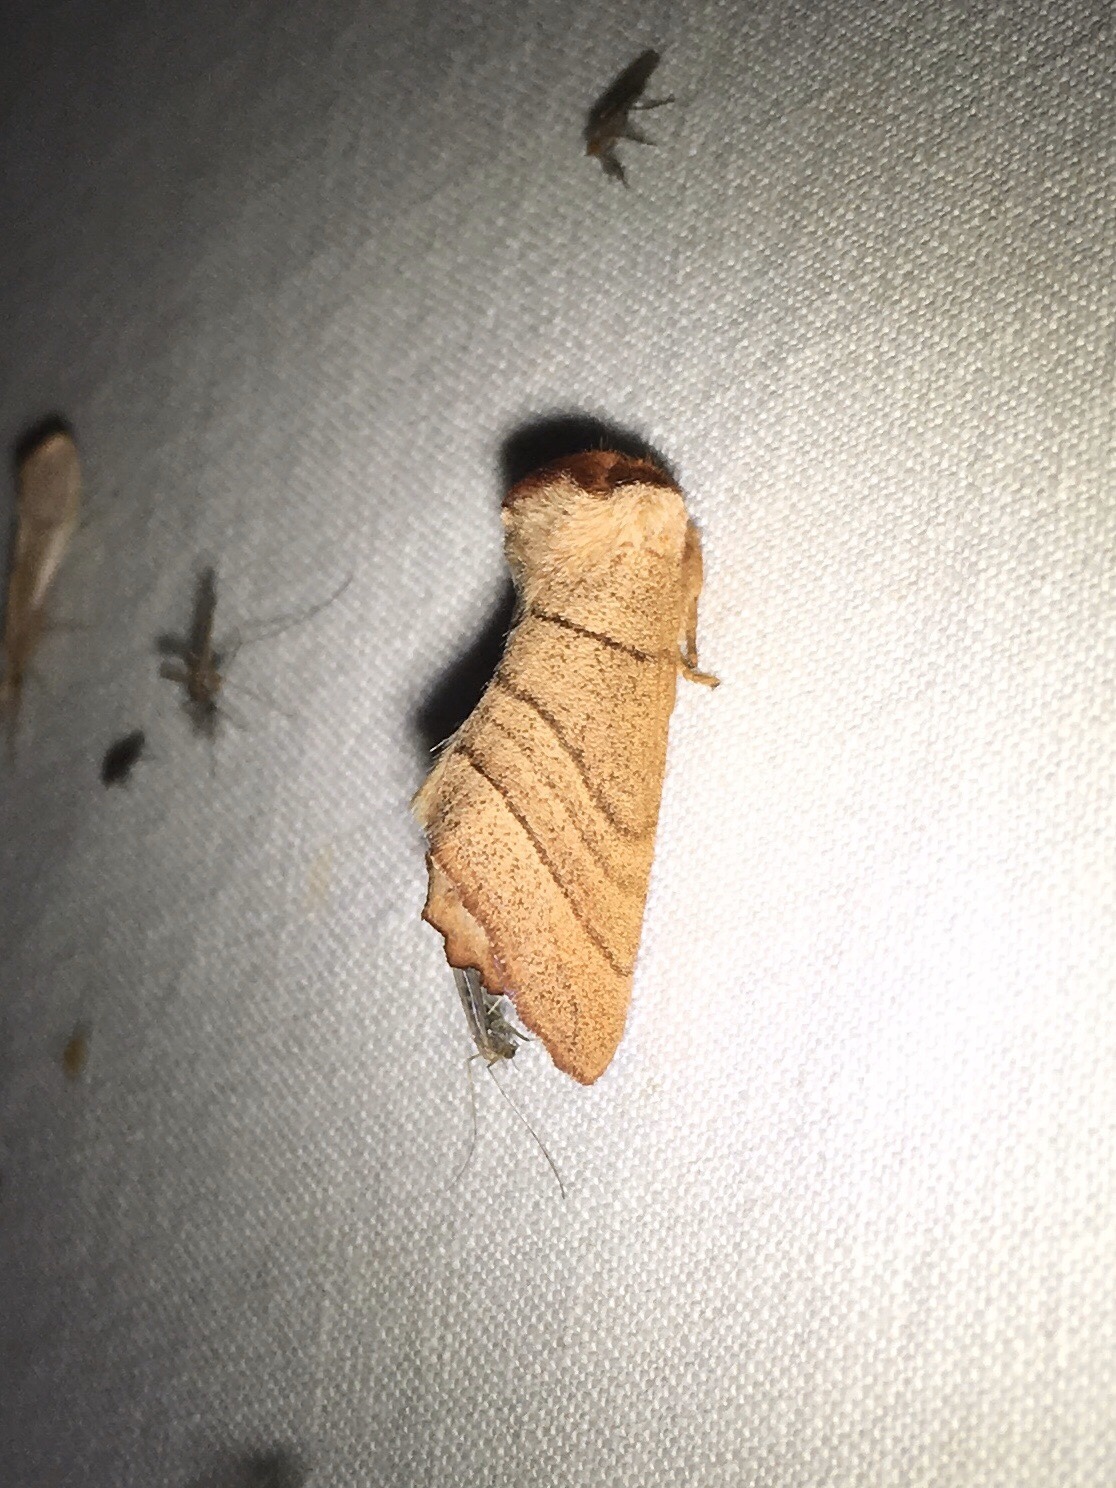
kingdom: Animalia
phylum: Arthropoda
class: Insecta
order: Lepidoptera
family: Notodontidae
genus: Datana
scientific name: Datana ministra
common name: Yellow-necked caterpillar moth
